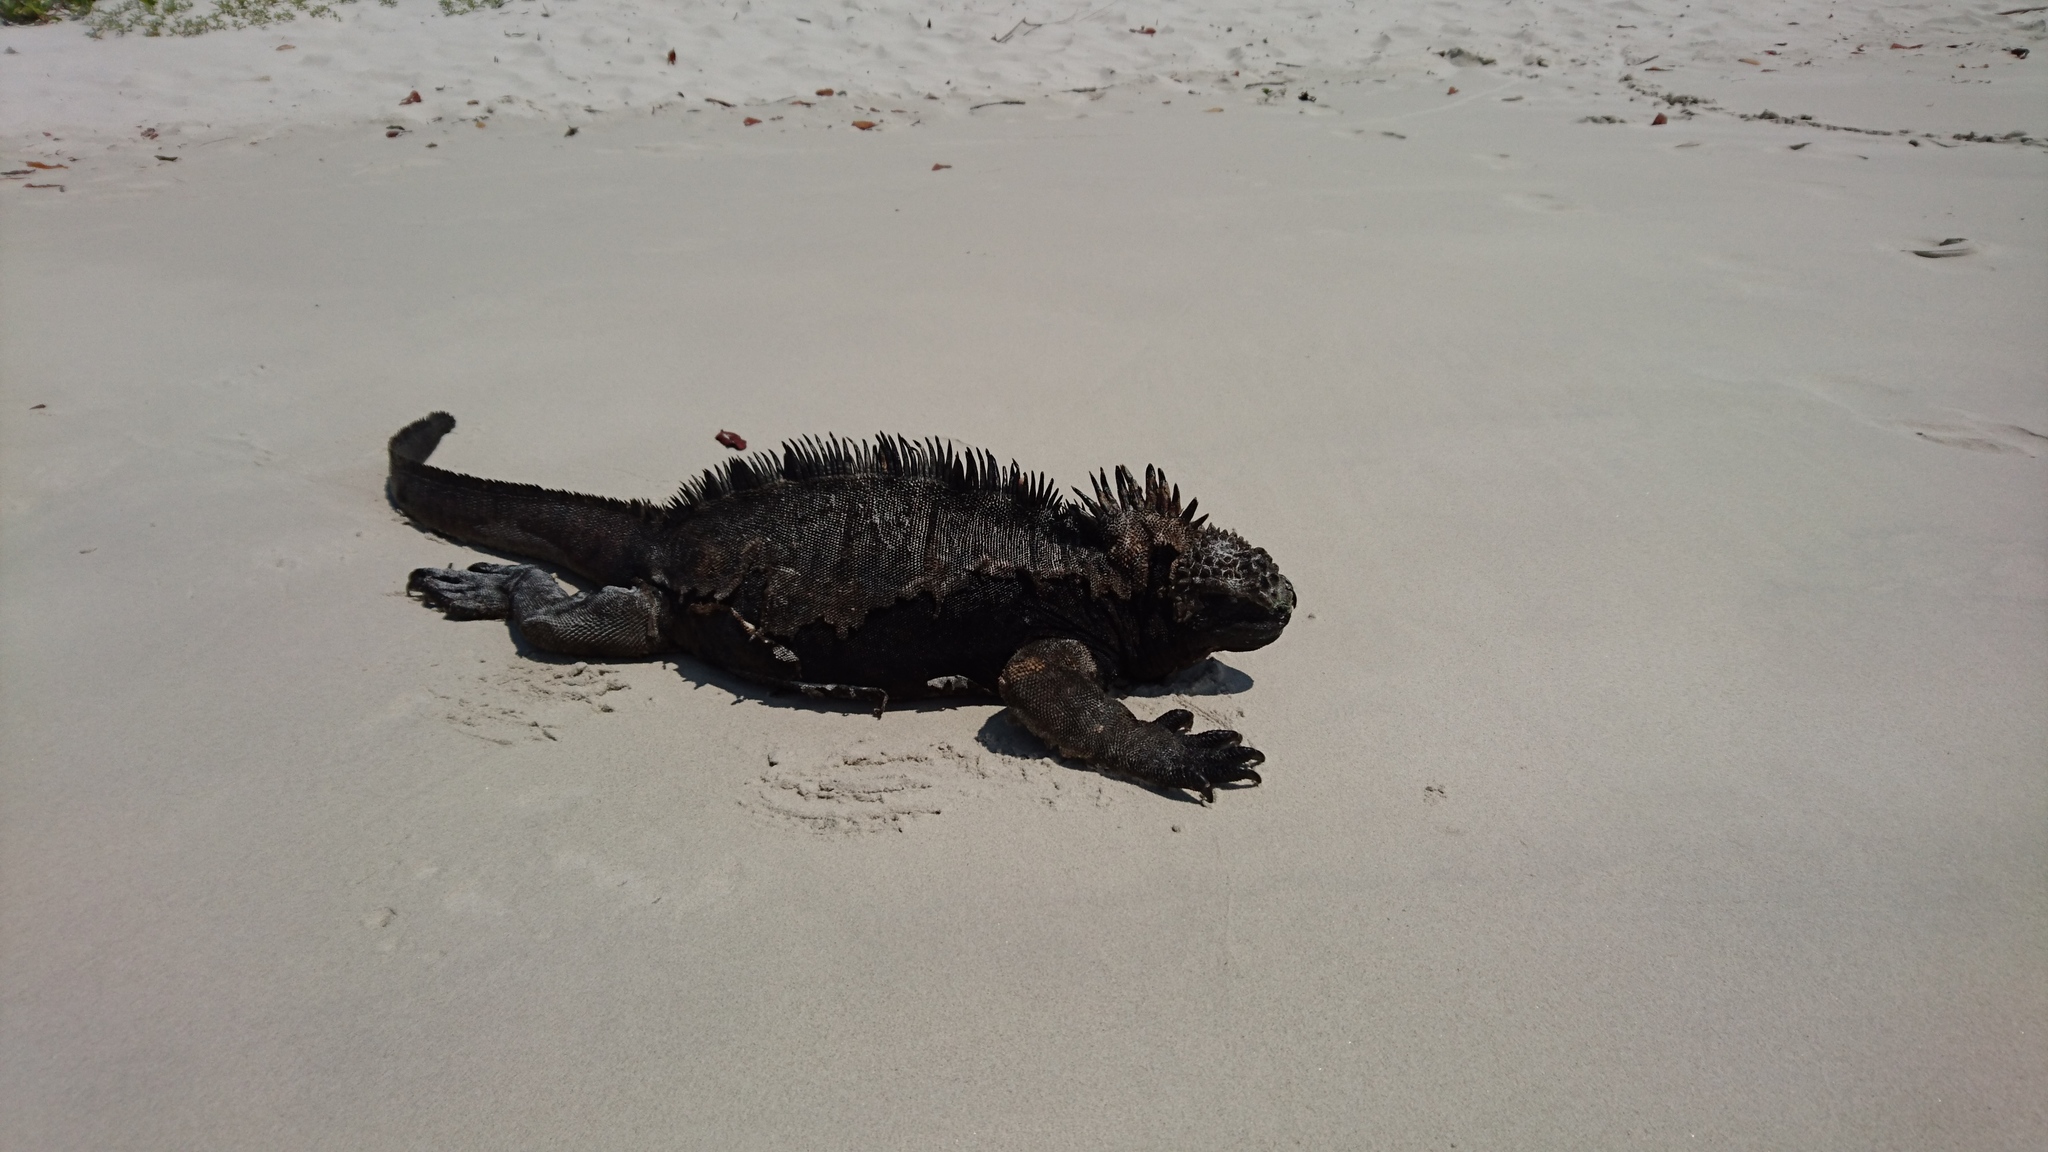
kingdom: Animalia
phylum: Chordata
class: Squamata
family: Iguanidae
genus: Amblyrhynchus
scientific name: Amblyrhynchus cristatus
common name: Marine iguana
